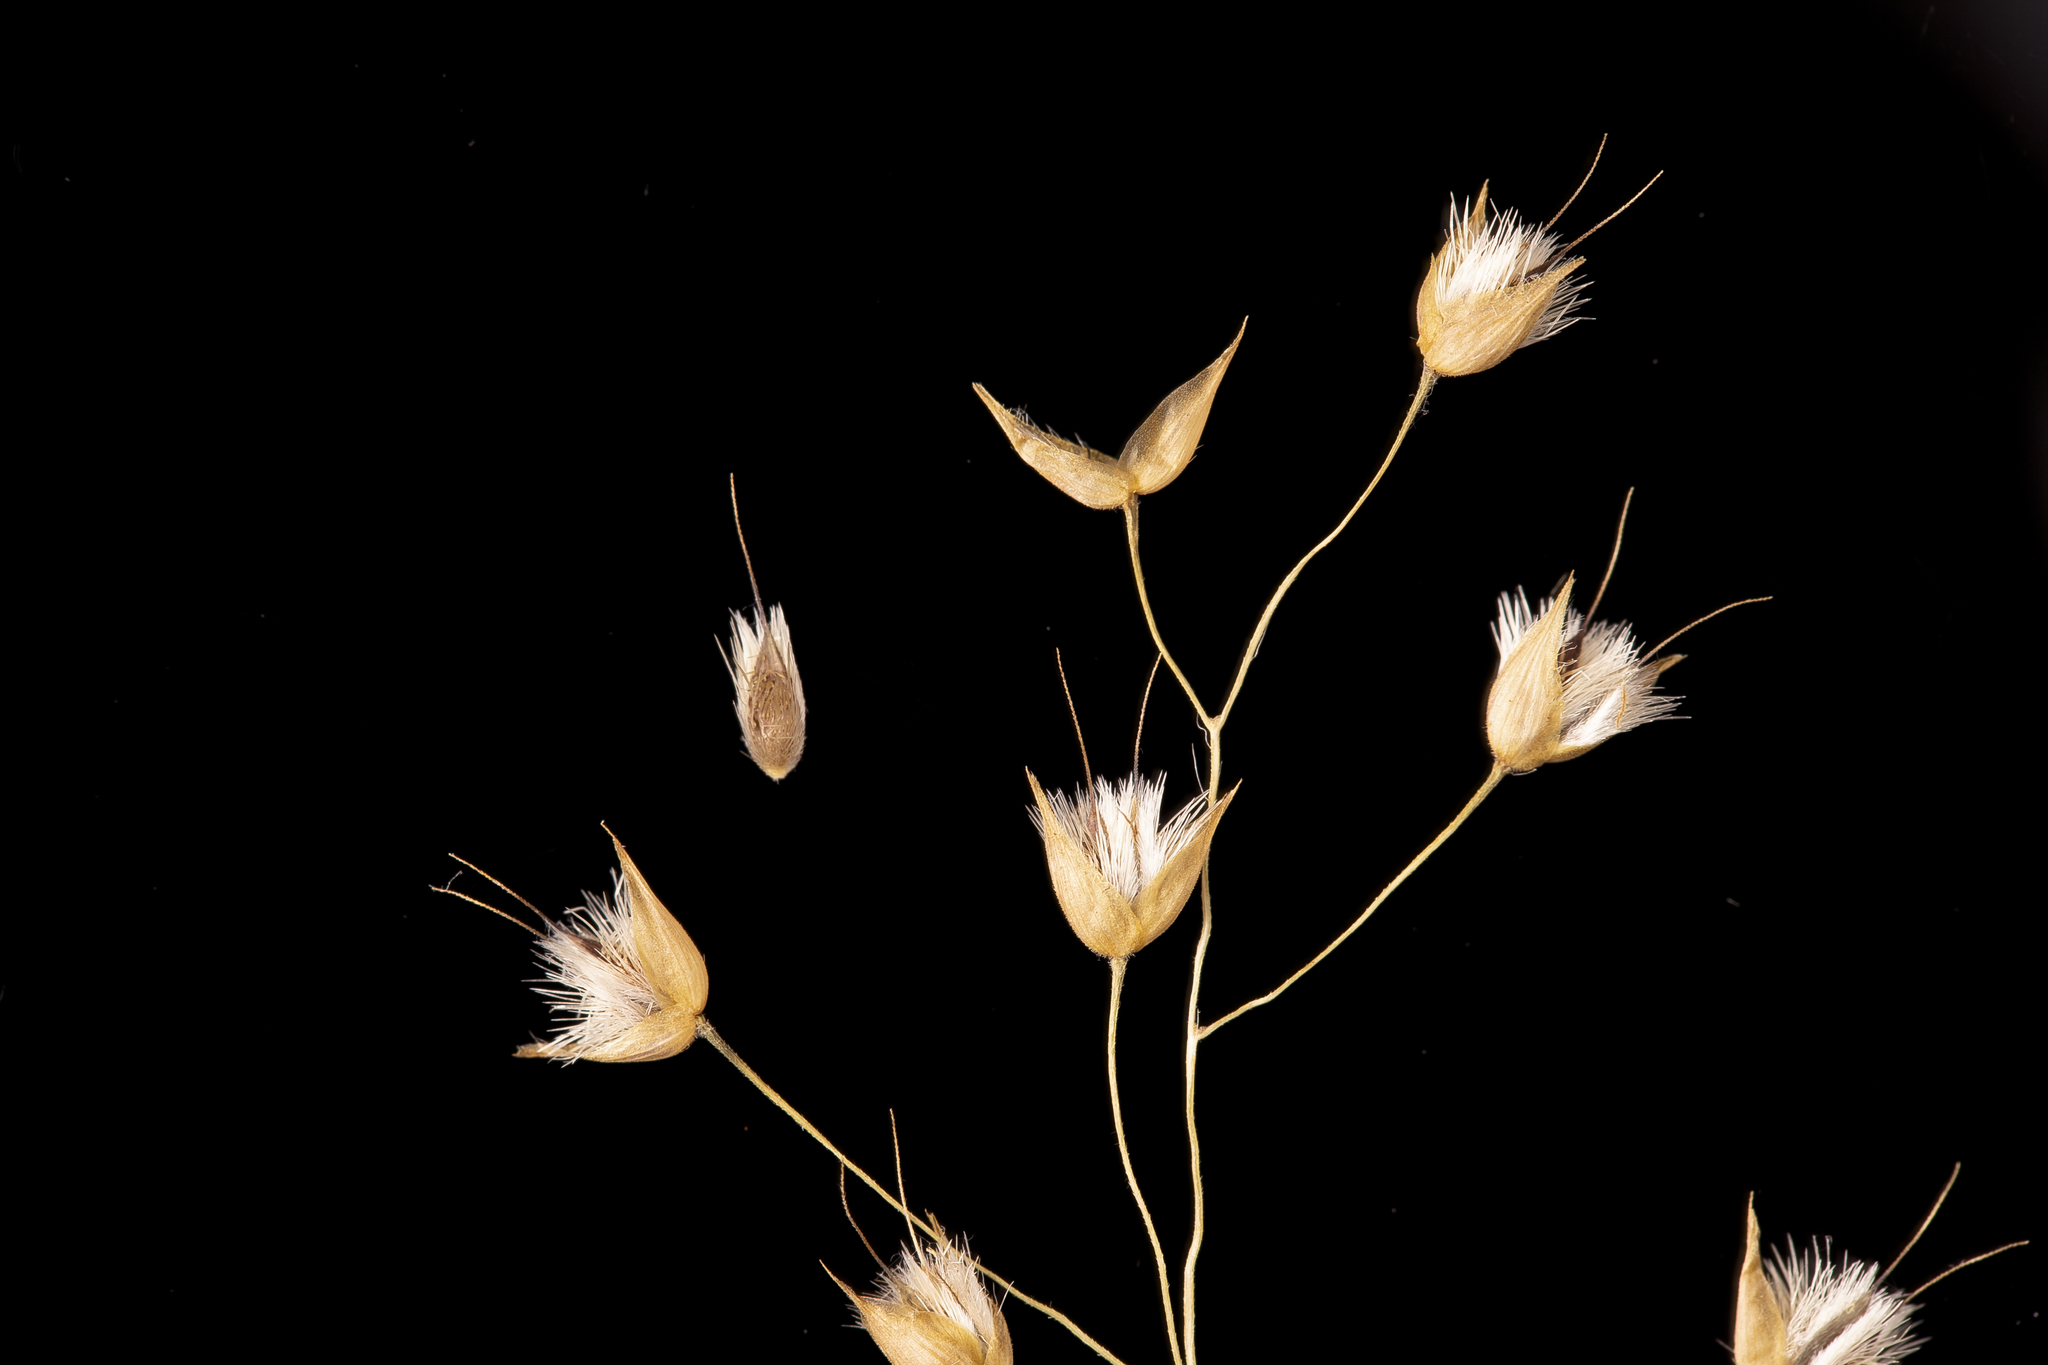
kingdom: Plantae
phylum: Tracheophyta
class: Liliopsida
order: Poales
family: Poaceae
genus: Eriachne
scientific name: Eriachne ciliata
